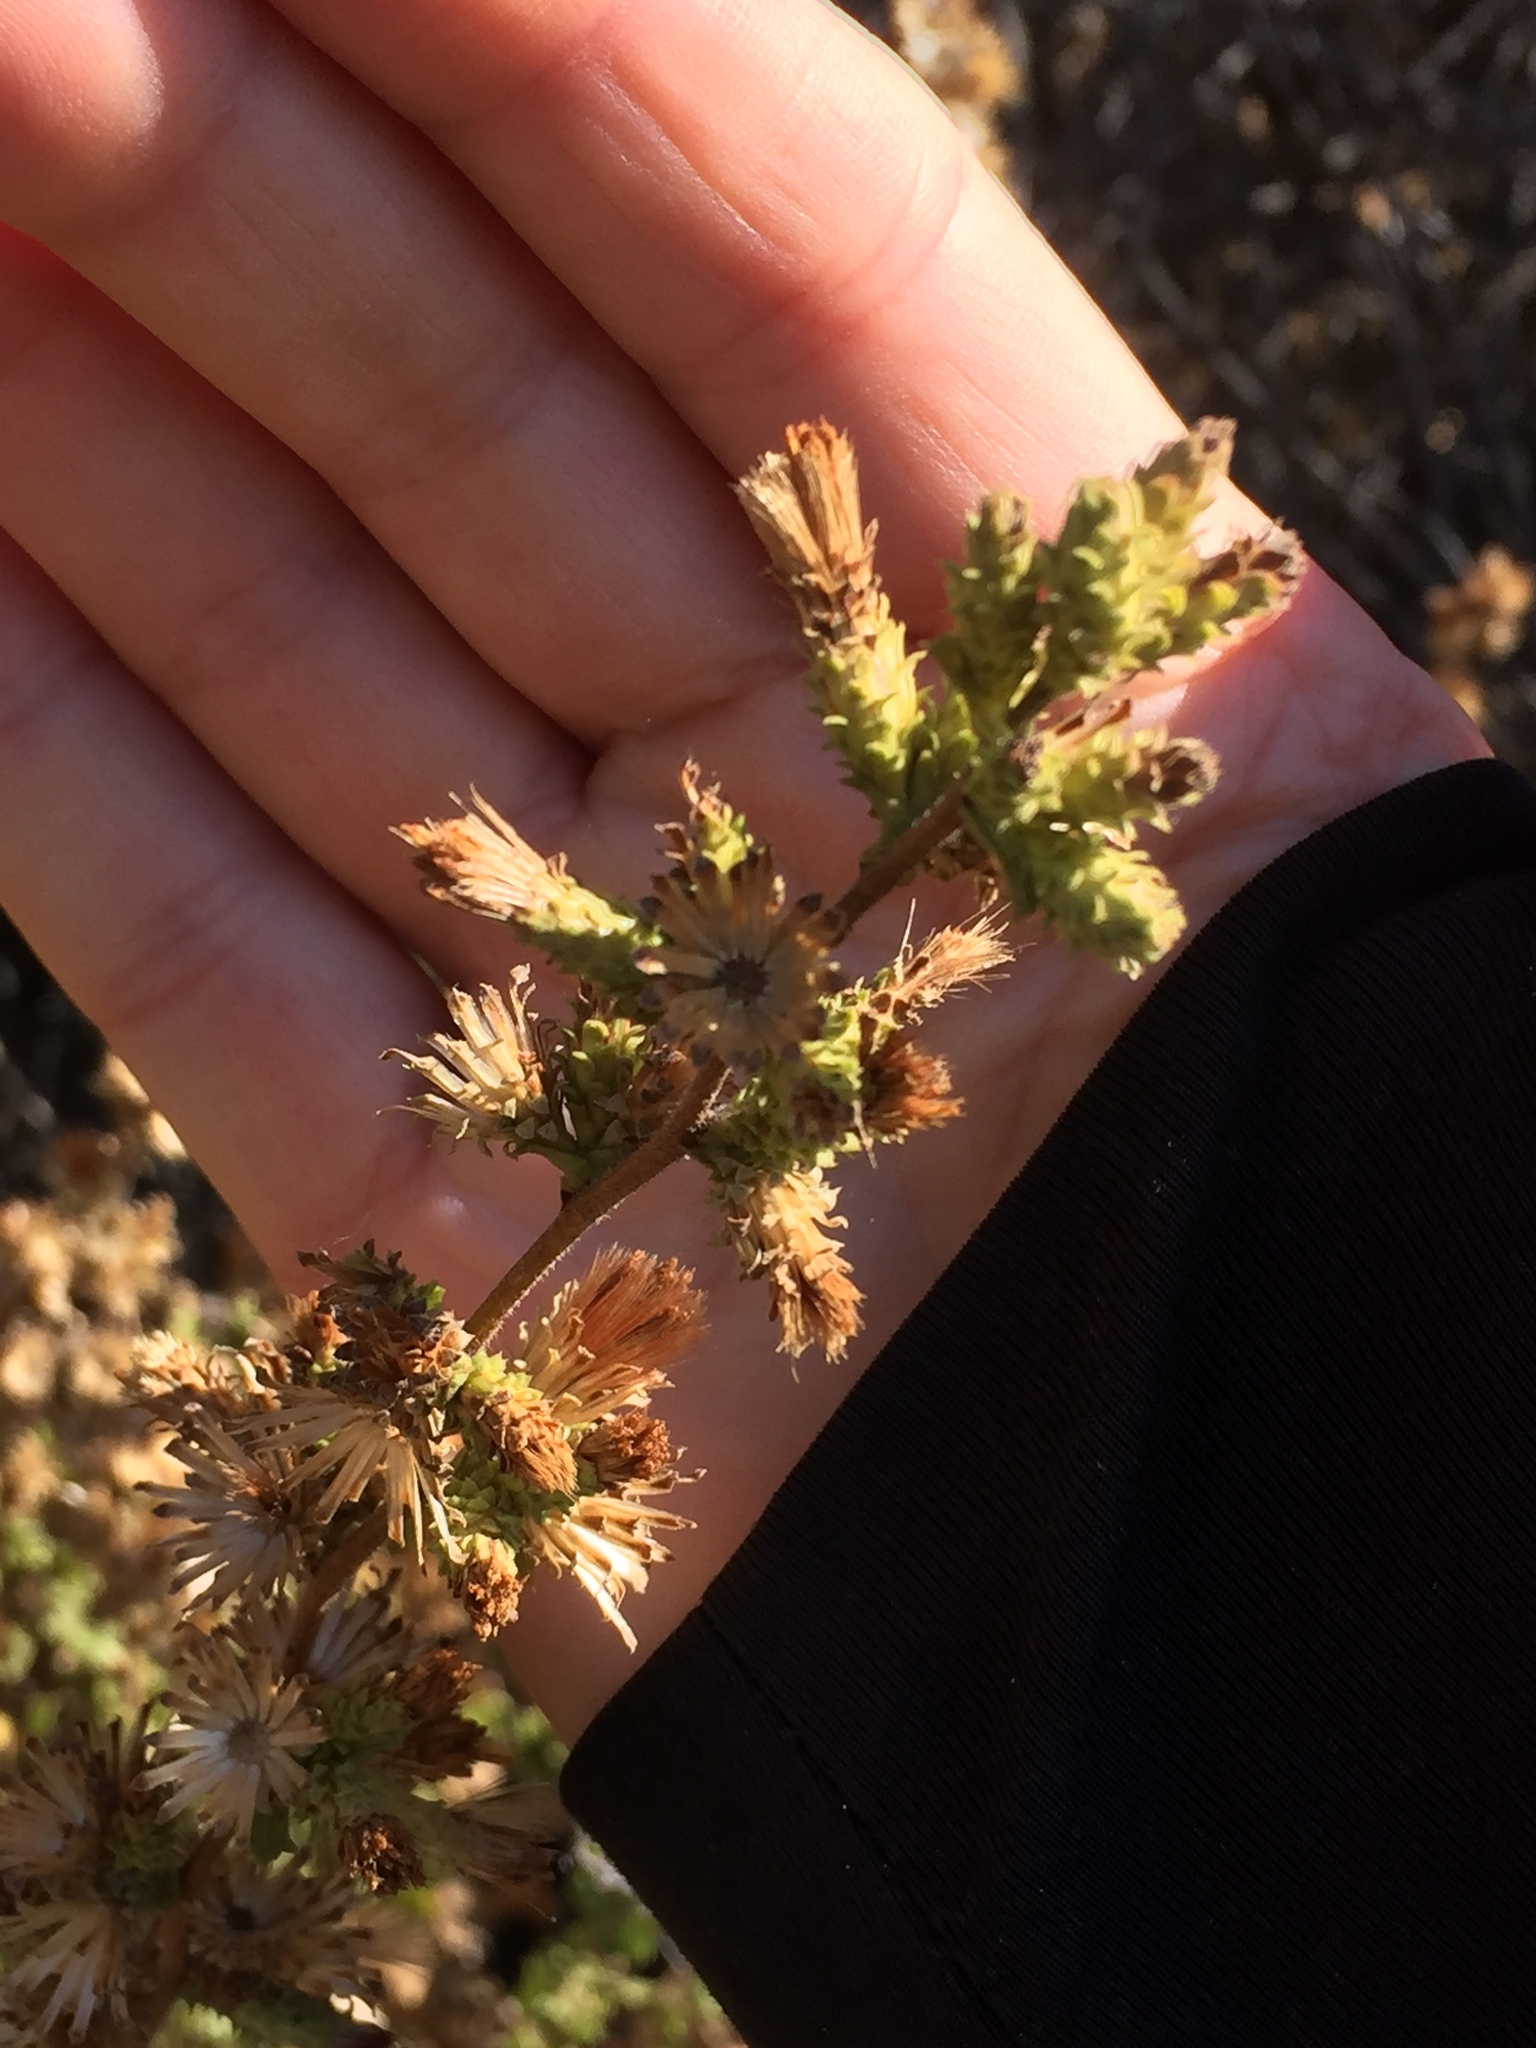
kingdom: Plantae
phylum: Tracheophyta
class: Magnoliopsida
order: Asterales
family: Asteraceae
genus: Hazardia
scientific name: Hazardia squarrosa
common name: Saw-tooth goldenbush
